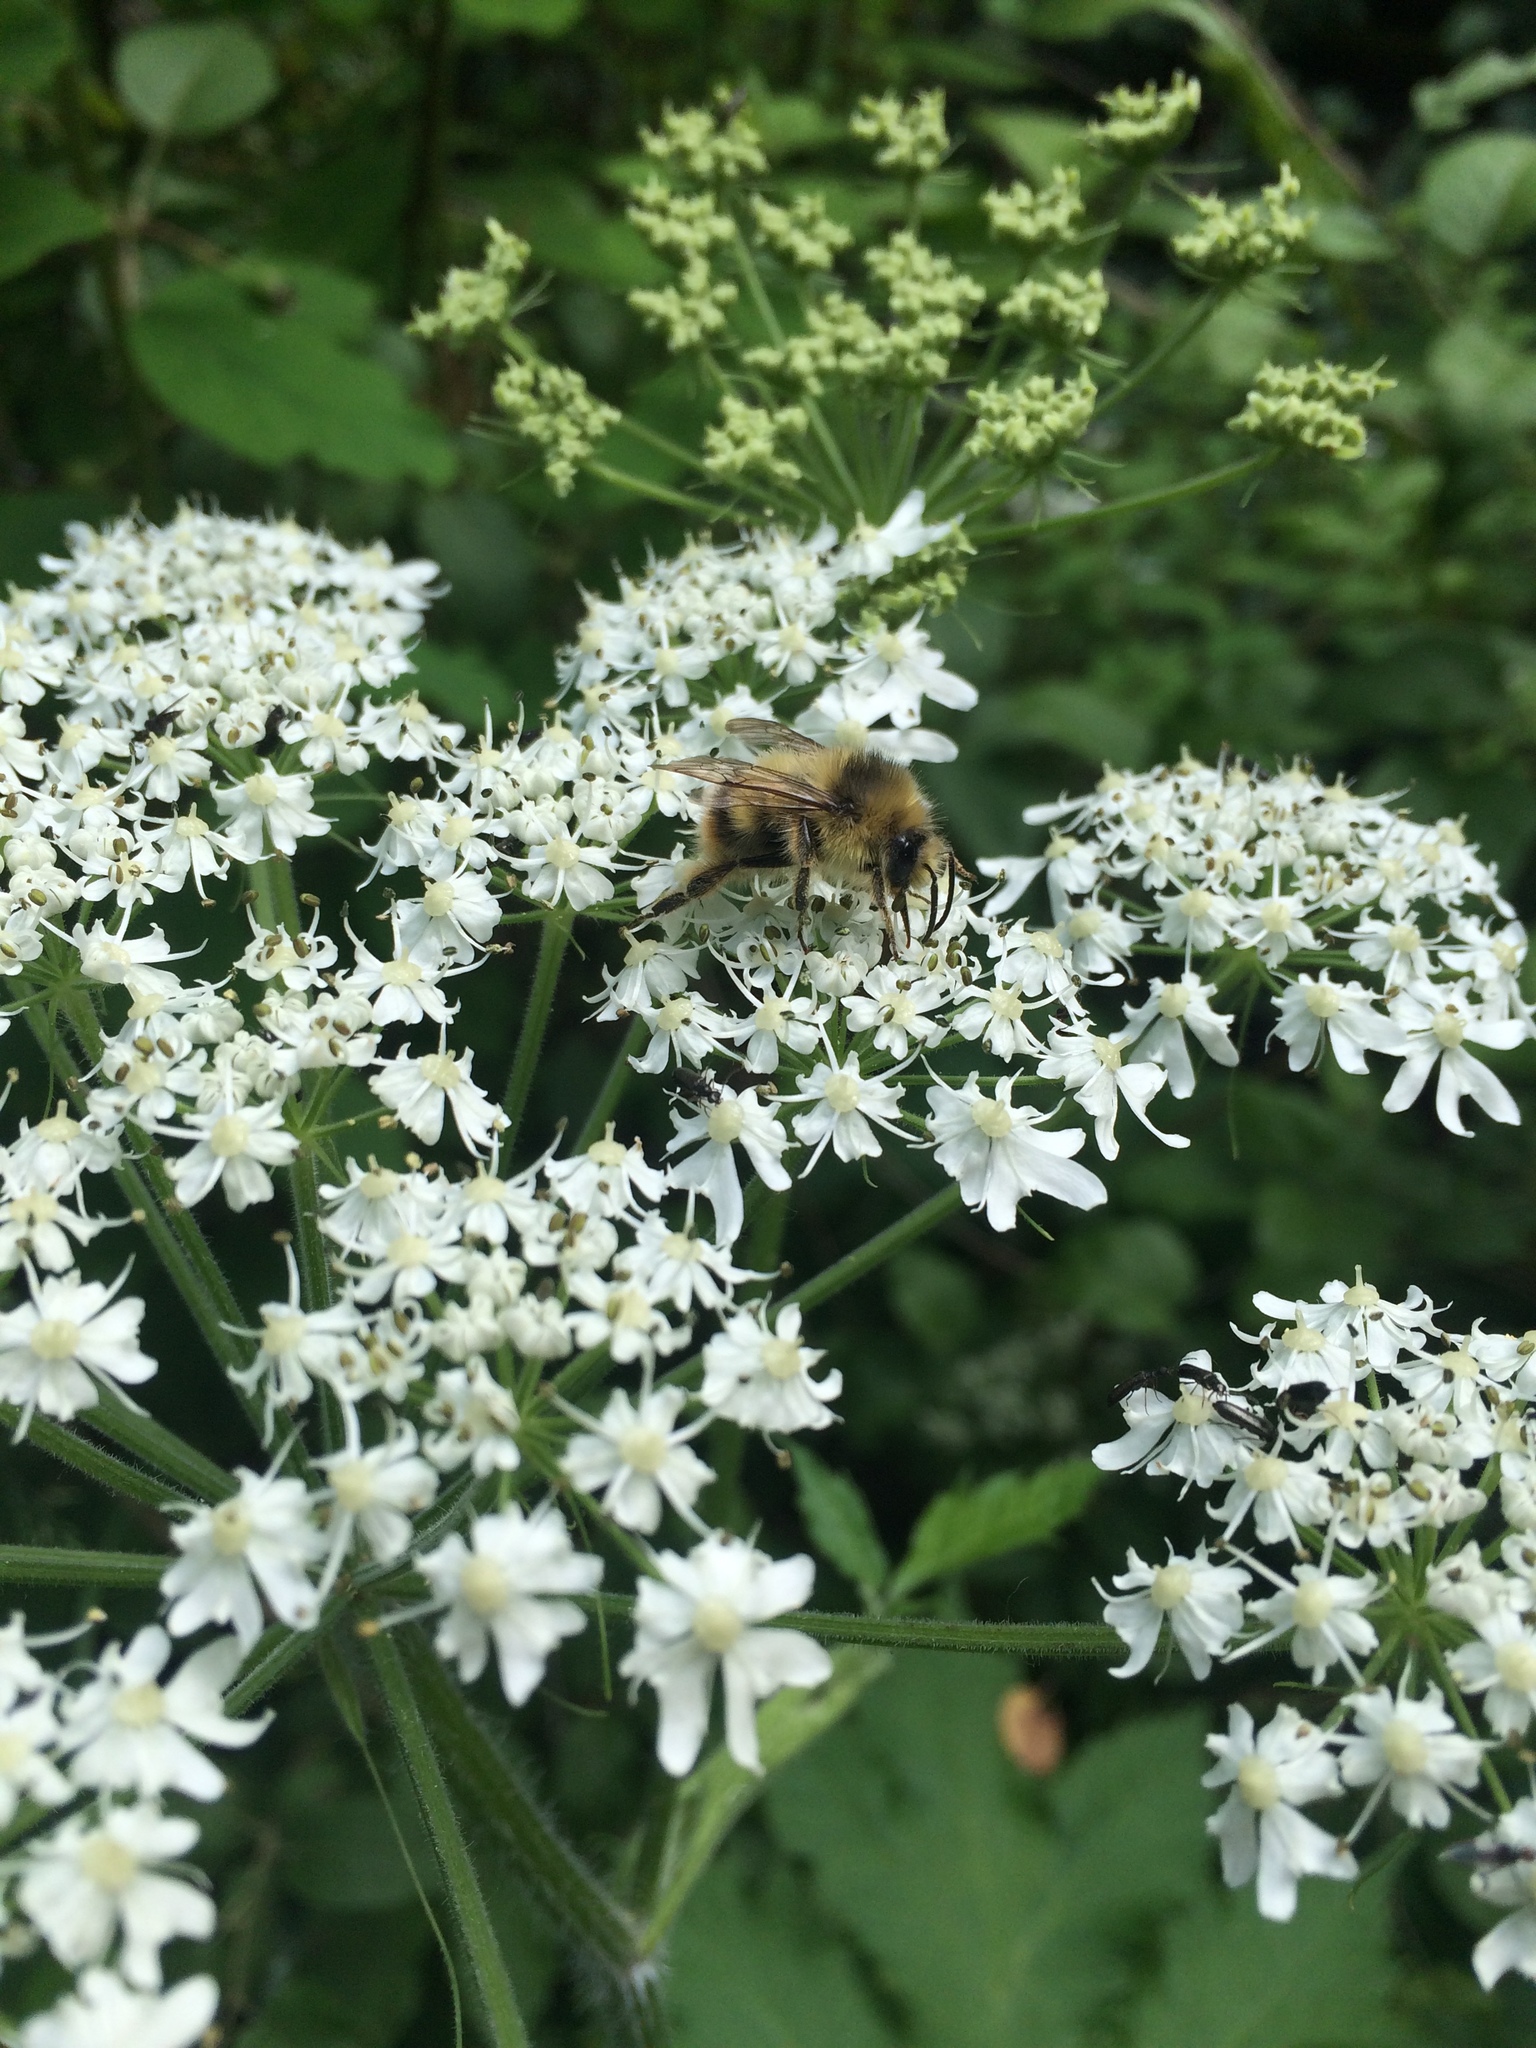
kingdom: Animalia
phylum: Arthropoda
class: Insecta
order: Hymenoptera
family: Apidae
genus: Bombus
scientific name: Bombus mixtus
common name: Fuzzy-horned bumble bee
